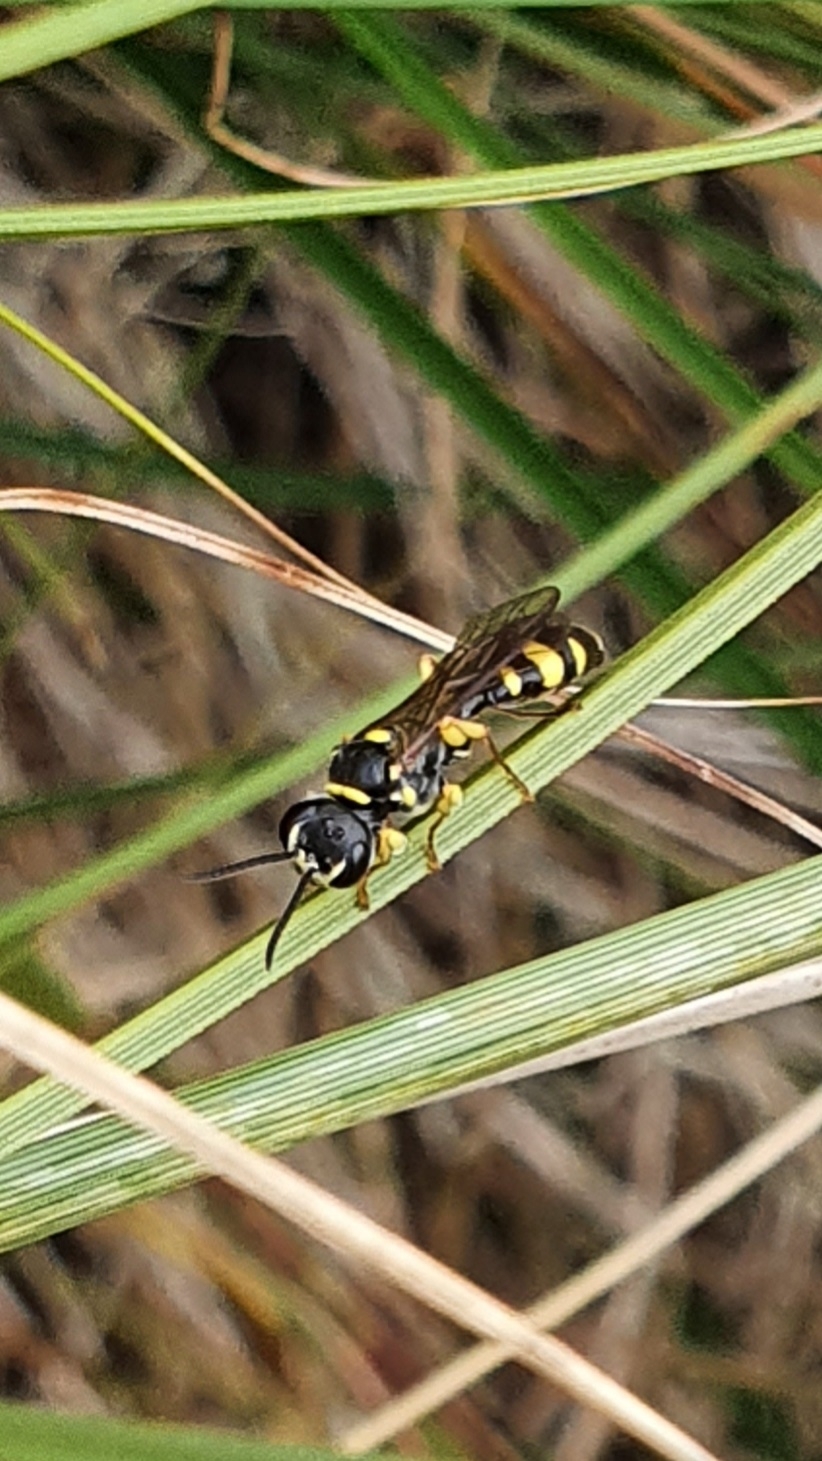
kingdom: Animalia
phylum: Arthropoda
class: Insecta
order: Hymenoptera
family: Crabronidae
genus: Mellinus
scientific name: Mellinus arvensis
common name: Field digger wasp
